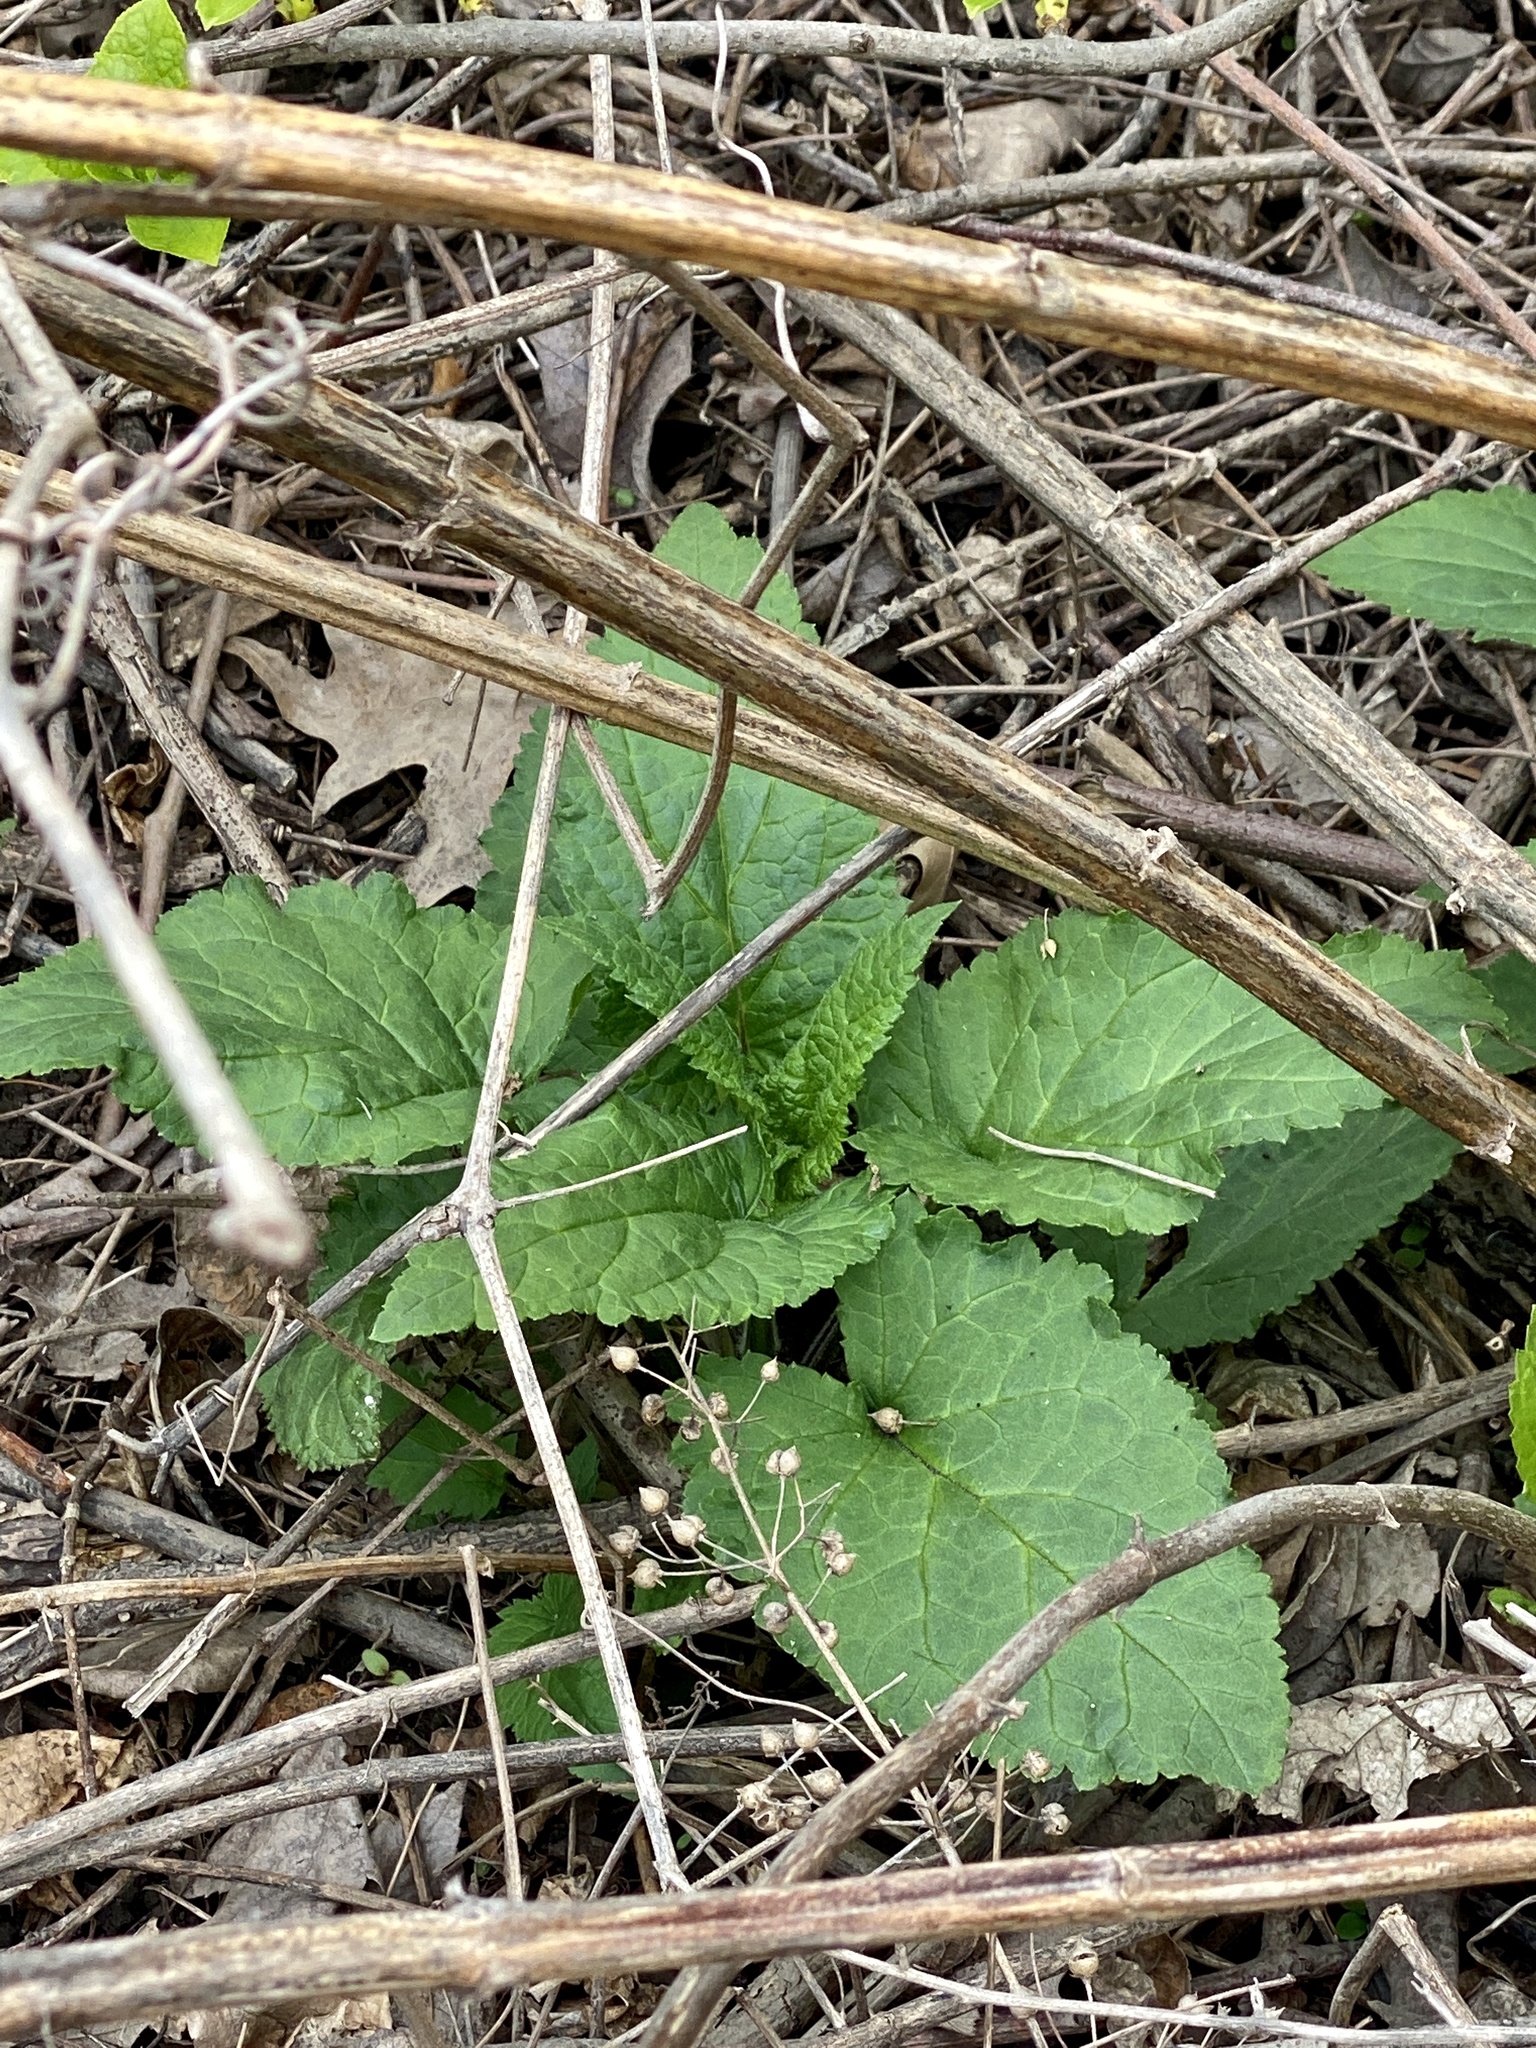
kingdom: Plantae
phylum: Tracheophyta
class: Magnoliopsida
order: Lamiales
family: Scrophulariaceae
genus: Scrophularia
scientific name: Scrophularia marilandica
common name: Eastern figwort
